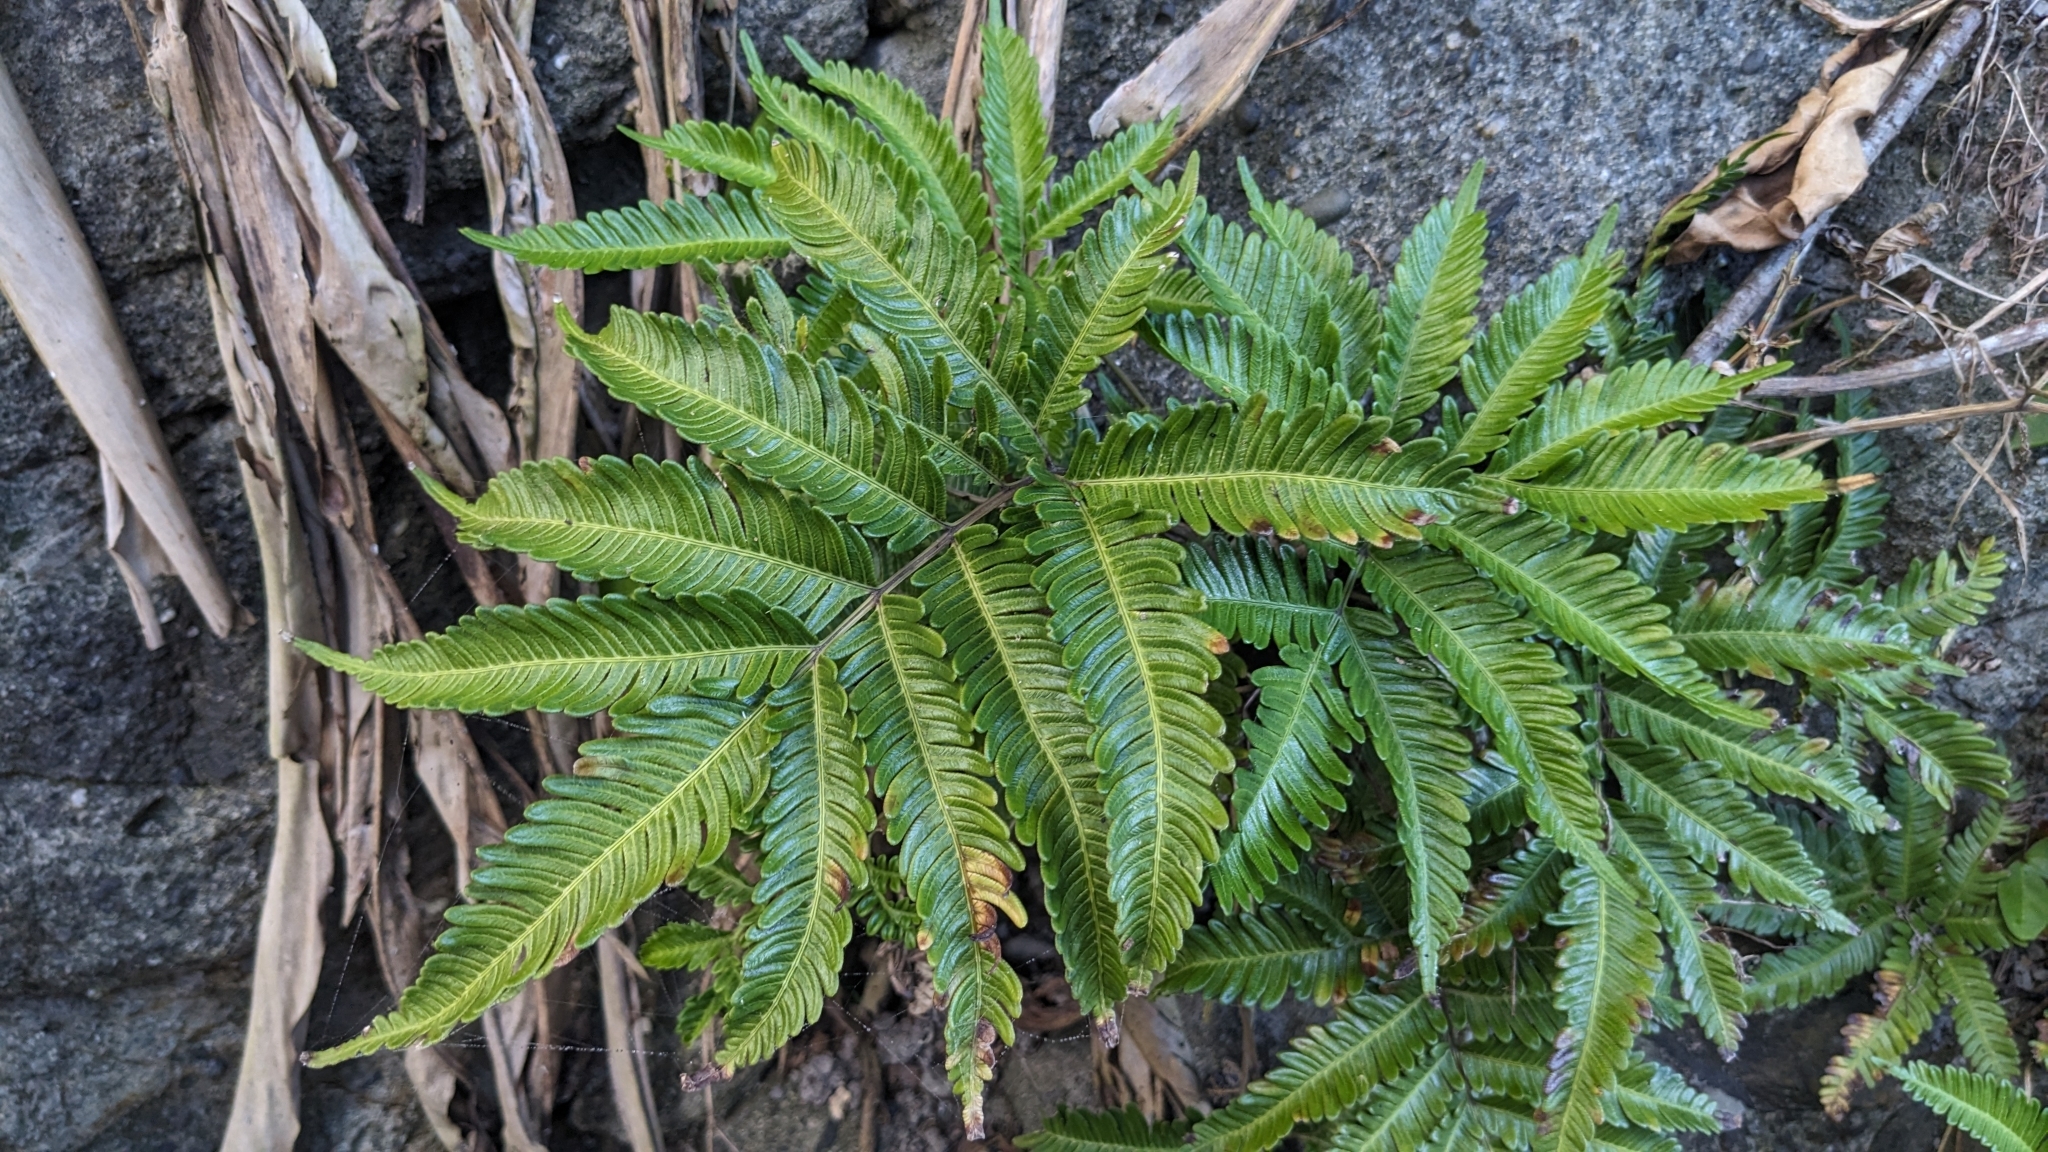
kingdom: Plantae
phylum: Tracheophyta
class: Polypodiopsida
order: Polypodiales
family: Pteridaceae
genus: Pteris
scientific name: Pteris minor
